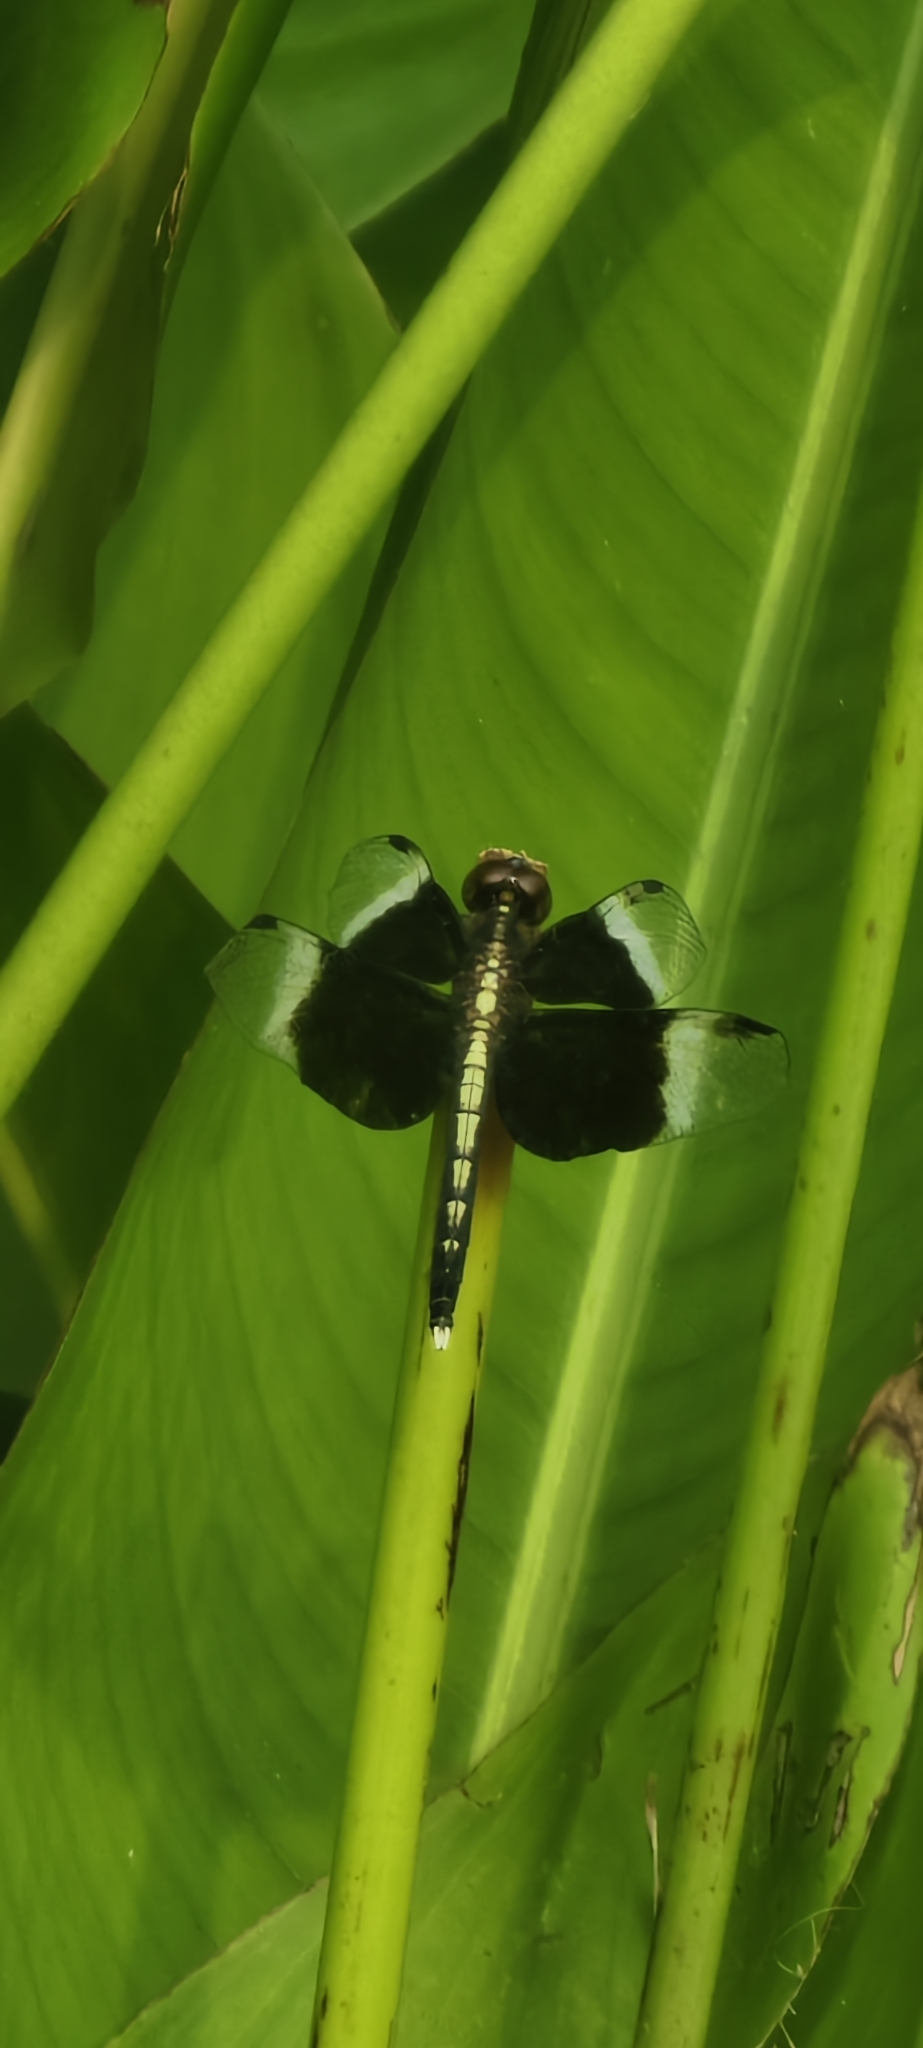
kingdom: Animalia
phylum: Arthropoda
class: Insecta
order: Odonata
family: Libellulidae
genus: Neurothemis
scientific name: Neurothemis tullia
